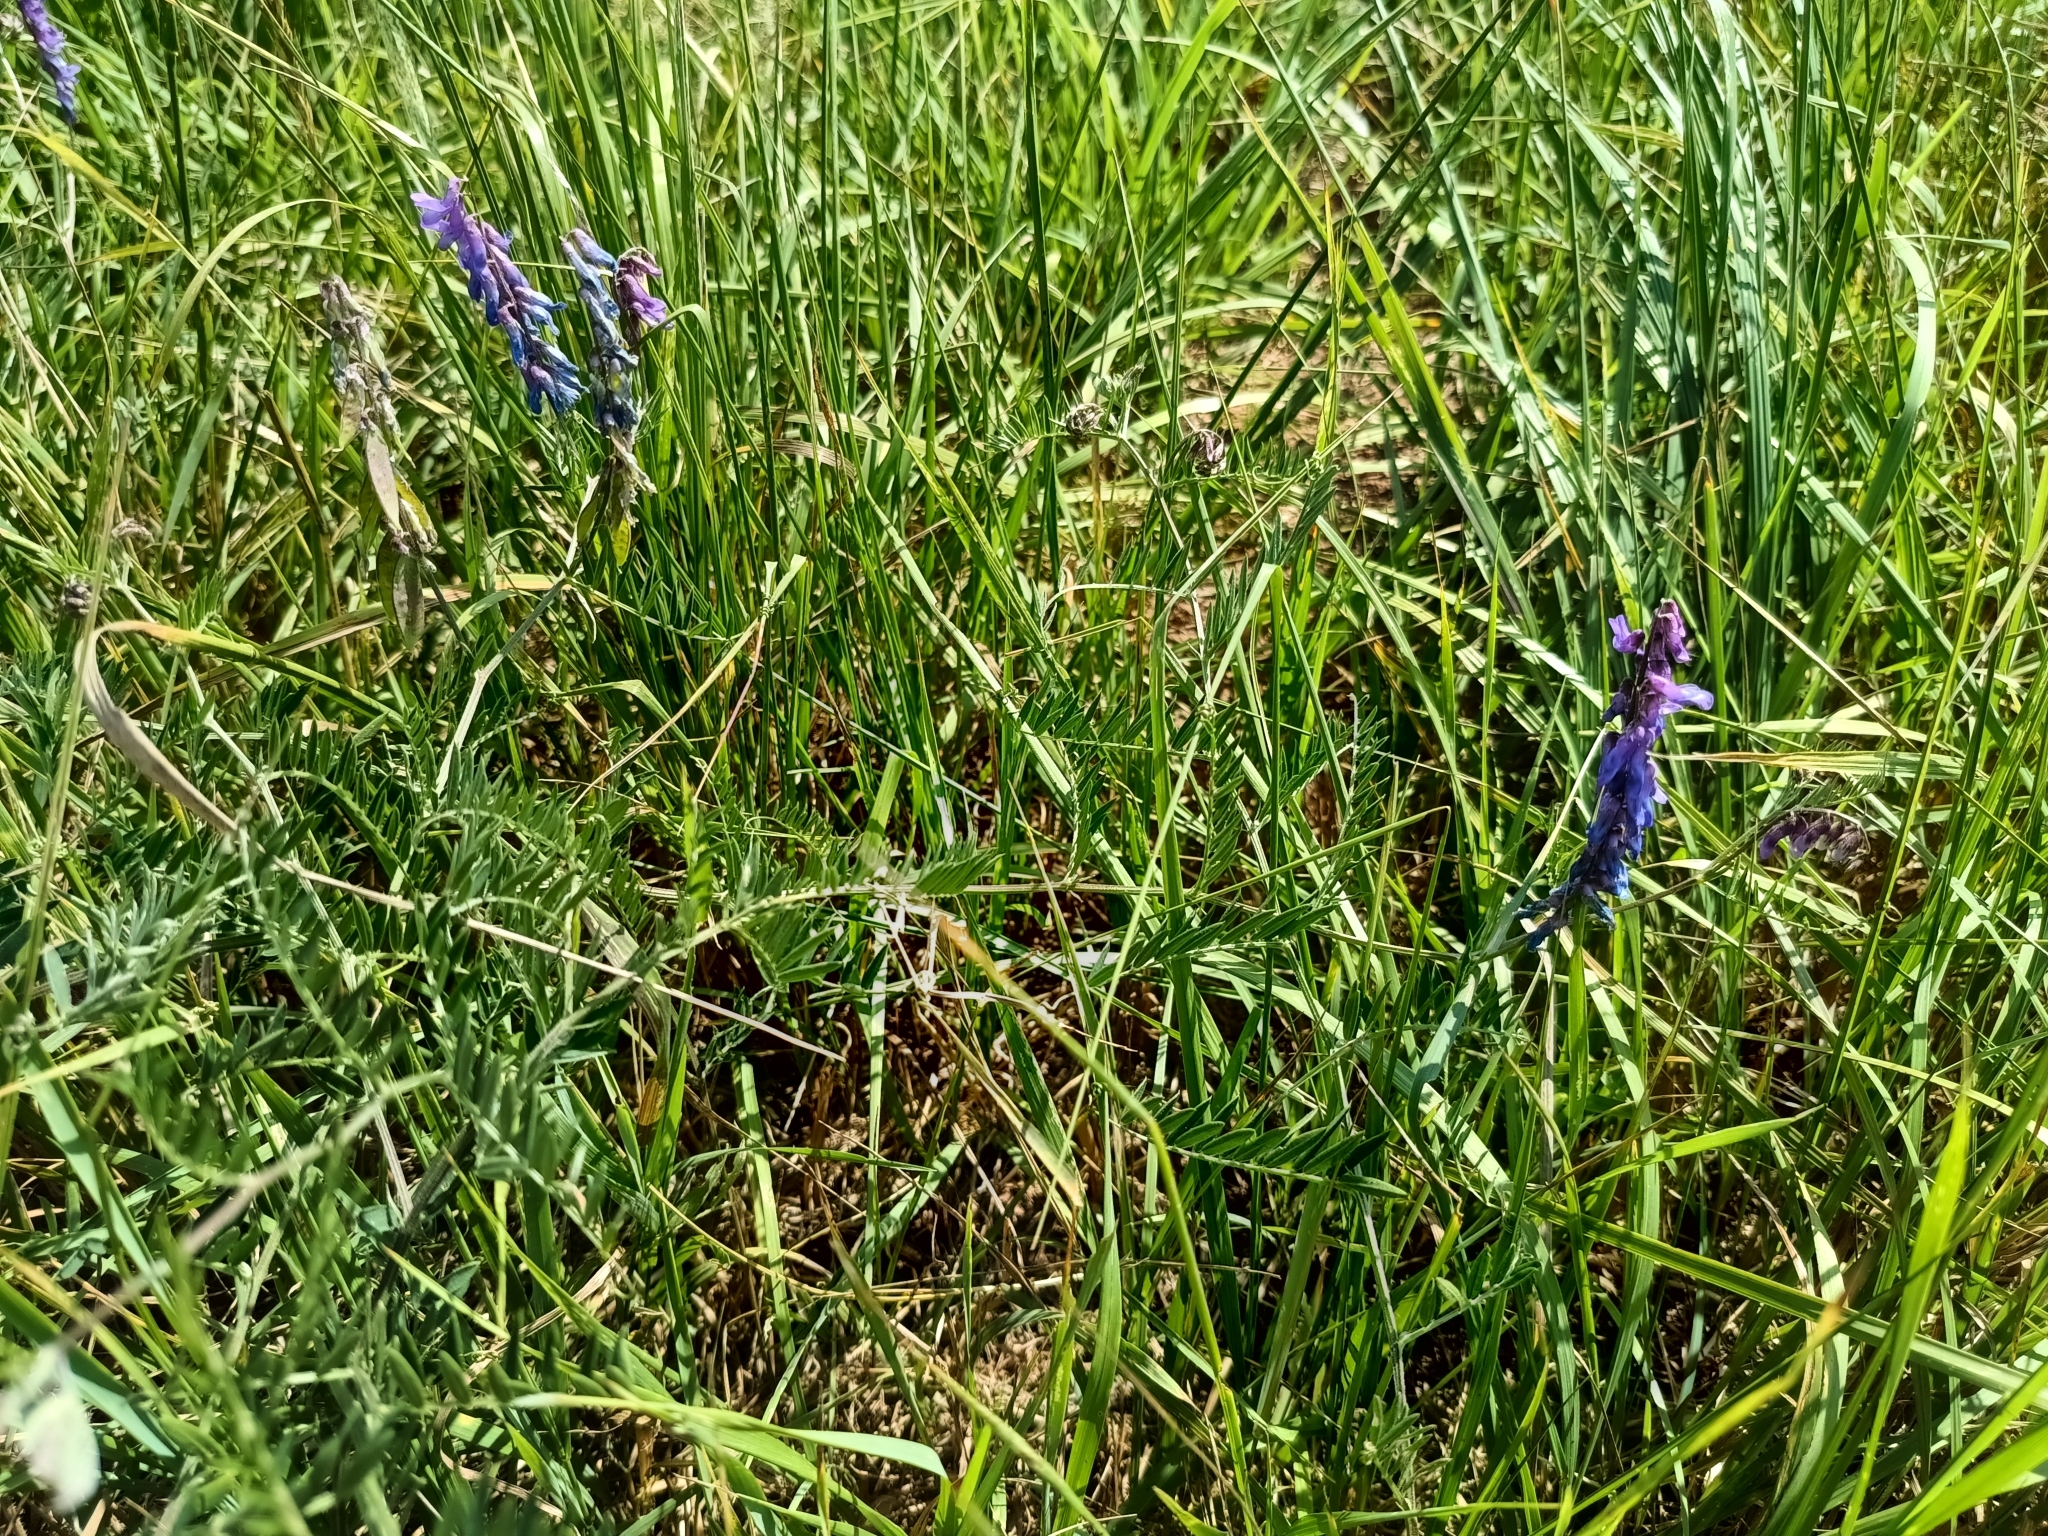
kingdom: Plantae
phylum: Tracheophyta
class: Magnoliopsida
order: Fabales
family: Fabaceae
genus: Vicia
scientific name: Vicia cracca
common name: Bird vetch
